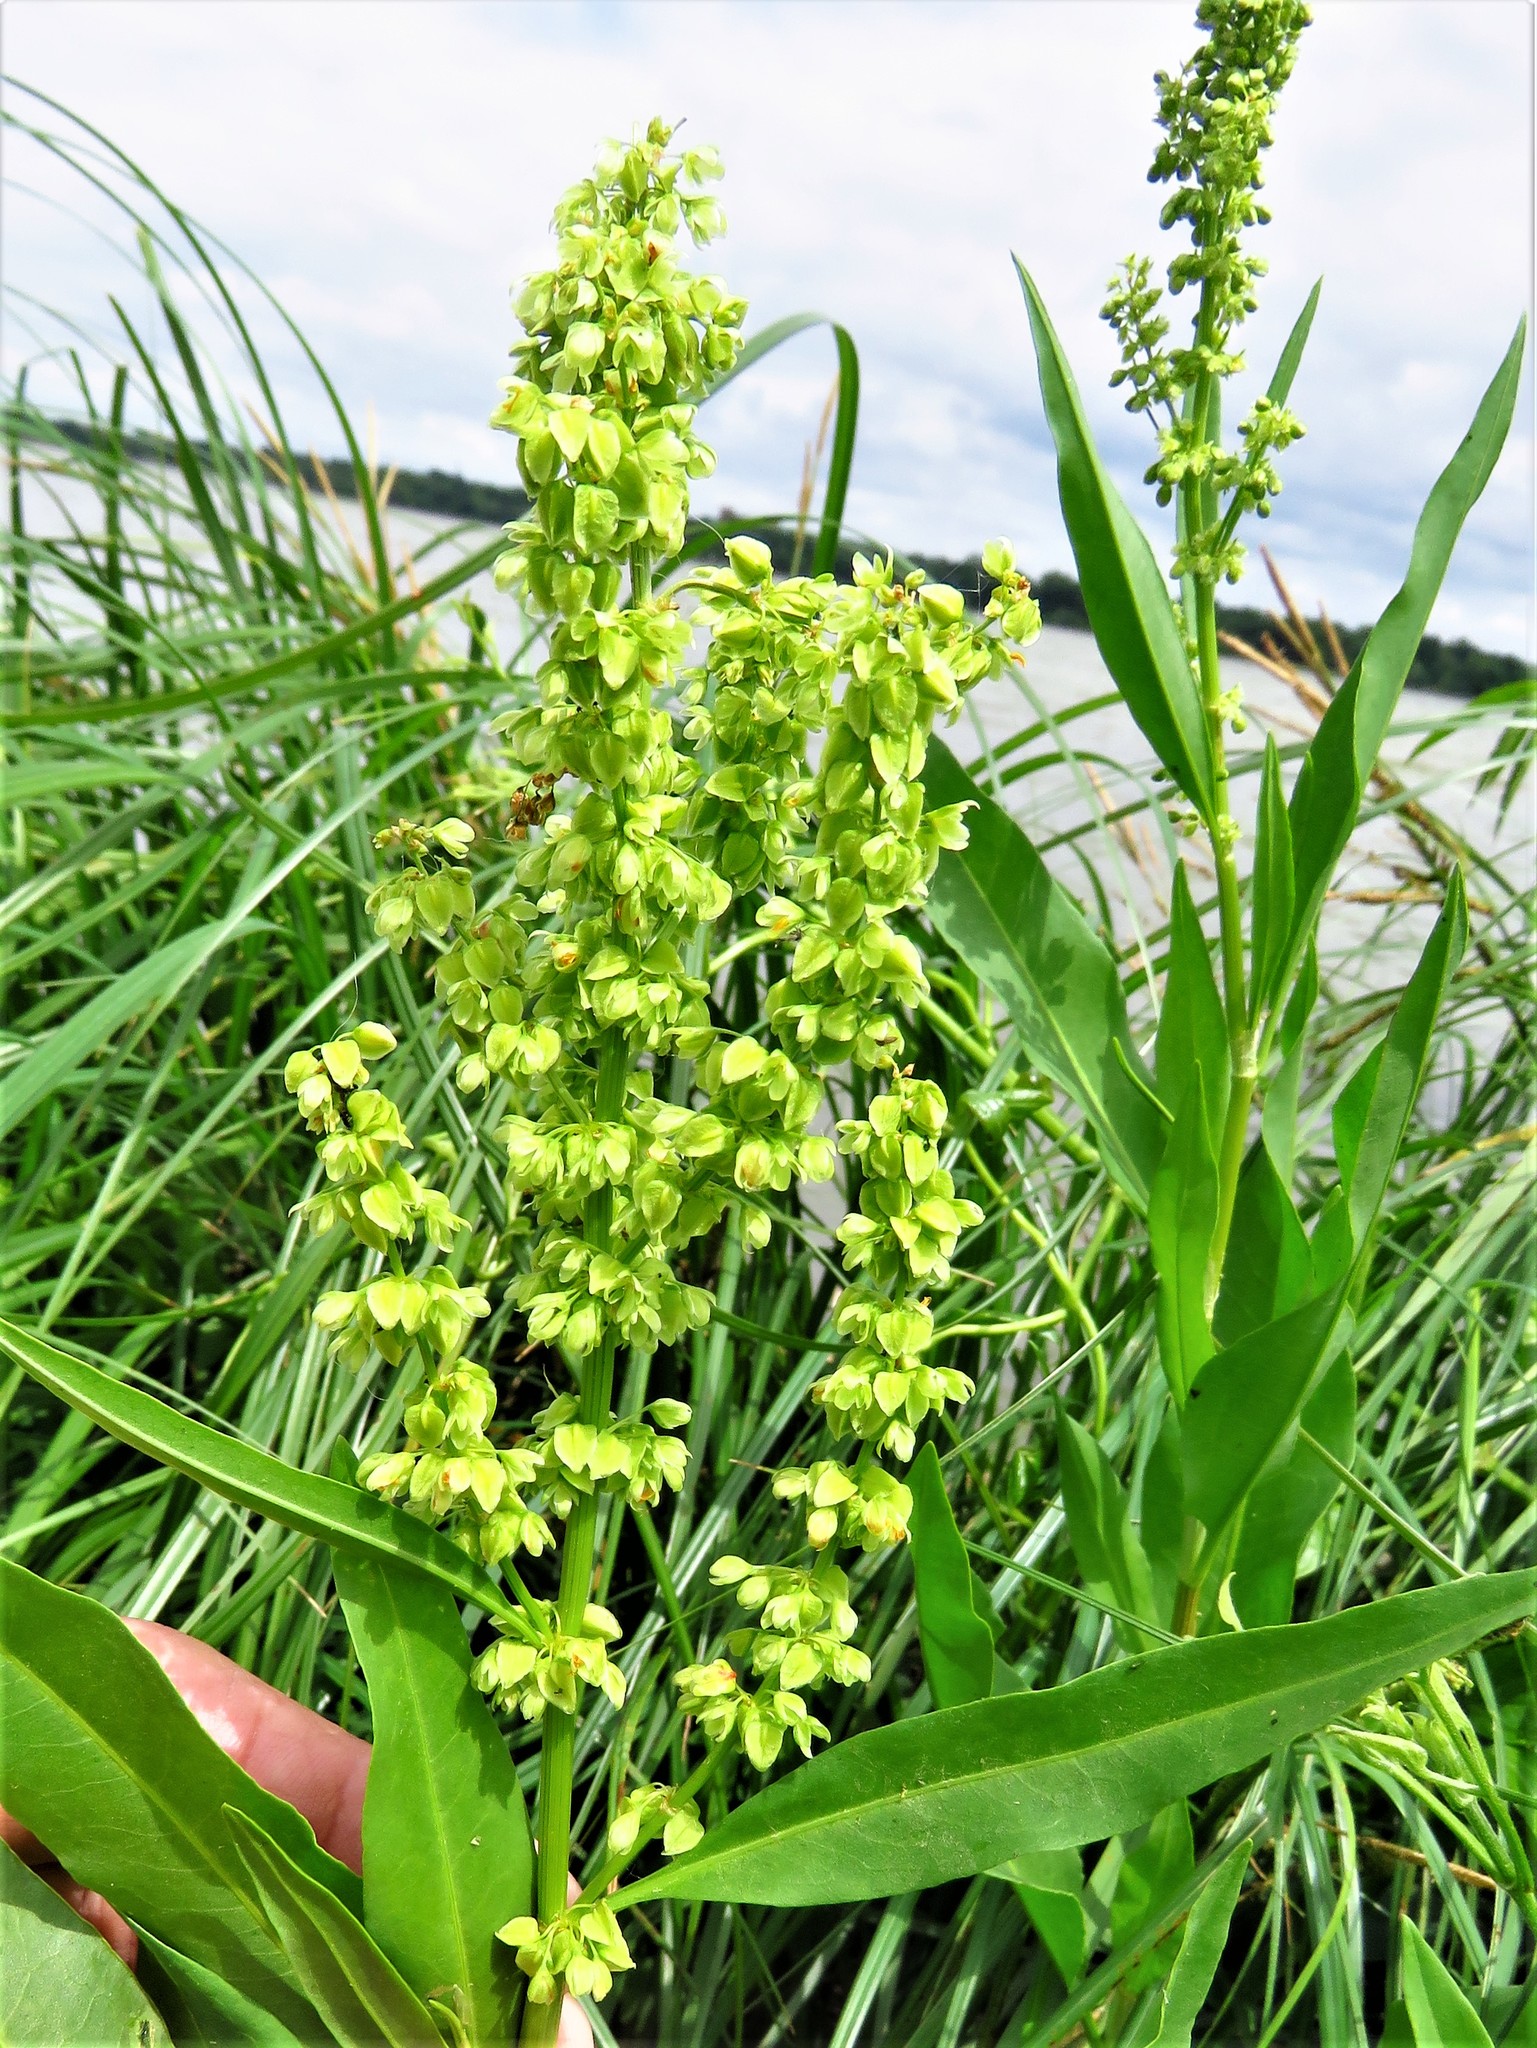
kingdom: Plantae
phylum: Tracheophyta
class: Magnoliopsida
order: Caryophyllales
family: Polygonaceae
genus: Rumex
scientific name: Rumex altissimus
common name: Smooth dock
